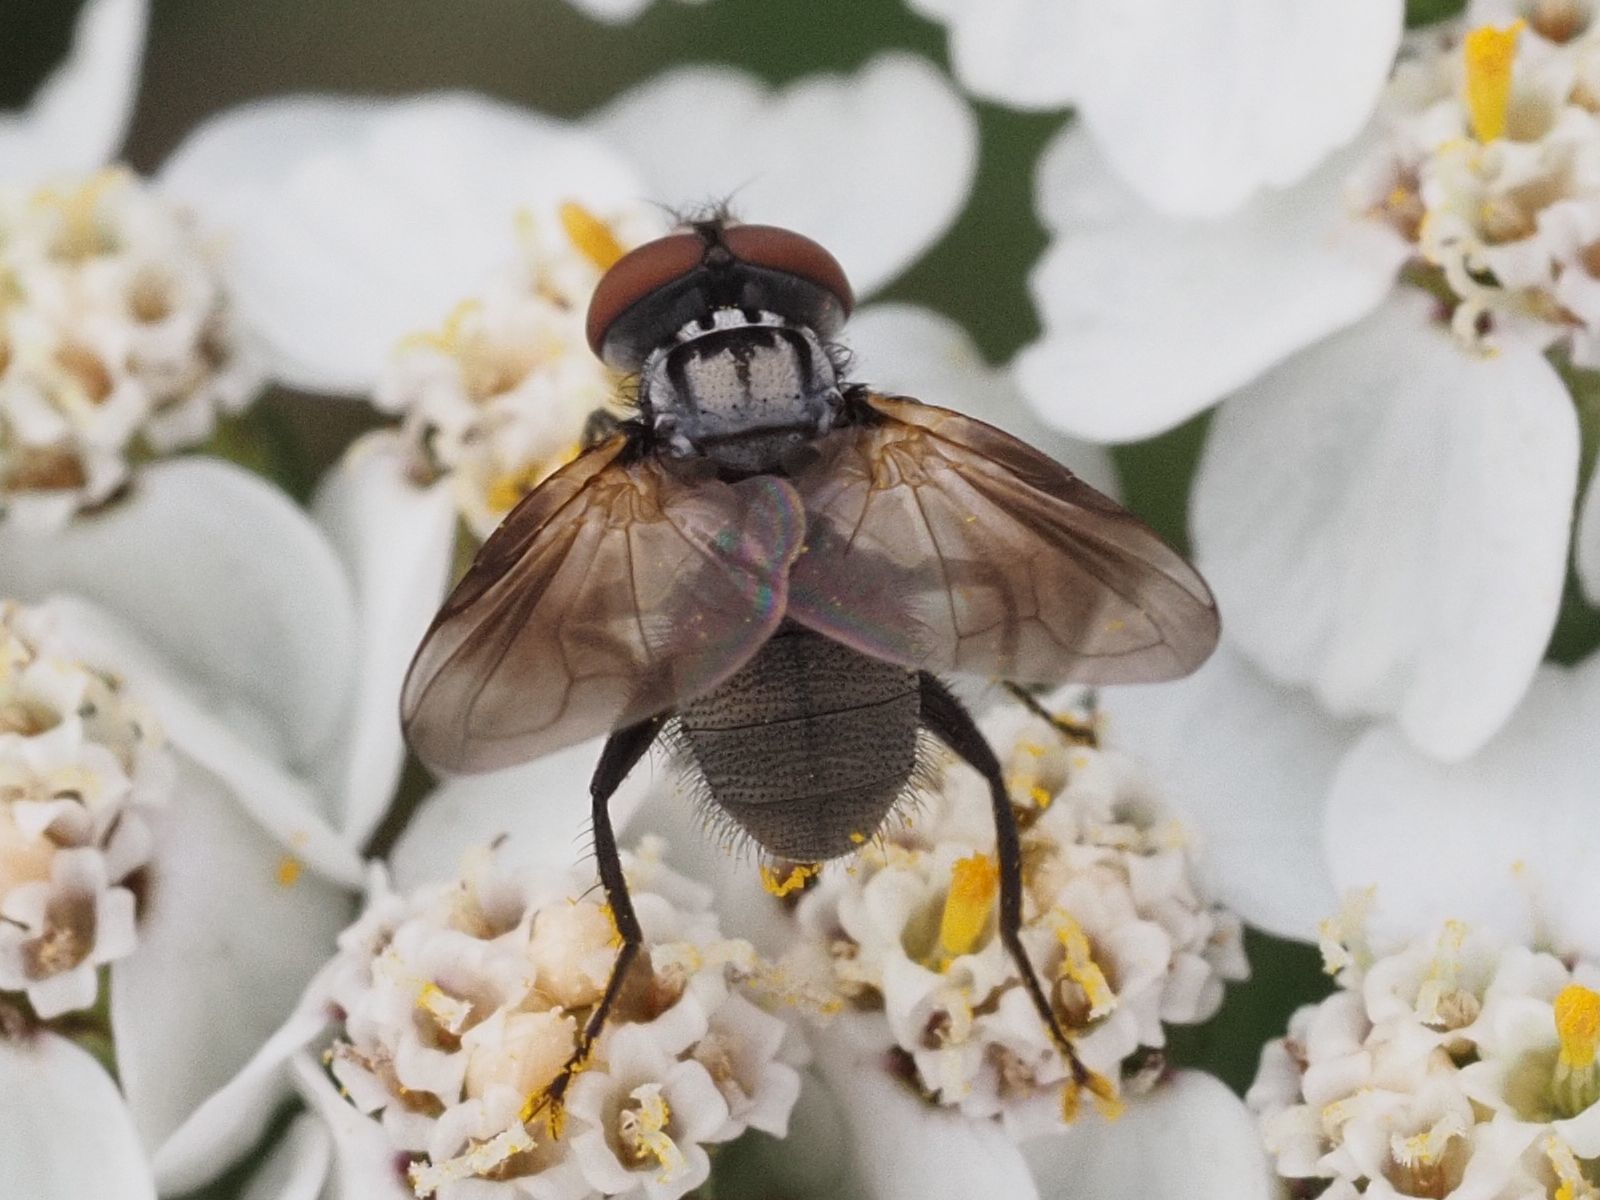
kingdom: Animalia
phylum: Arthropoda
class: Insecta
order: Diptera
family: Tachinidae
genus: Phasia
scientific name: Phasia obesa
